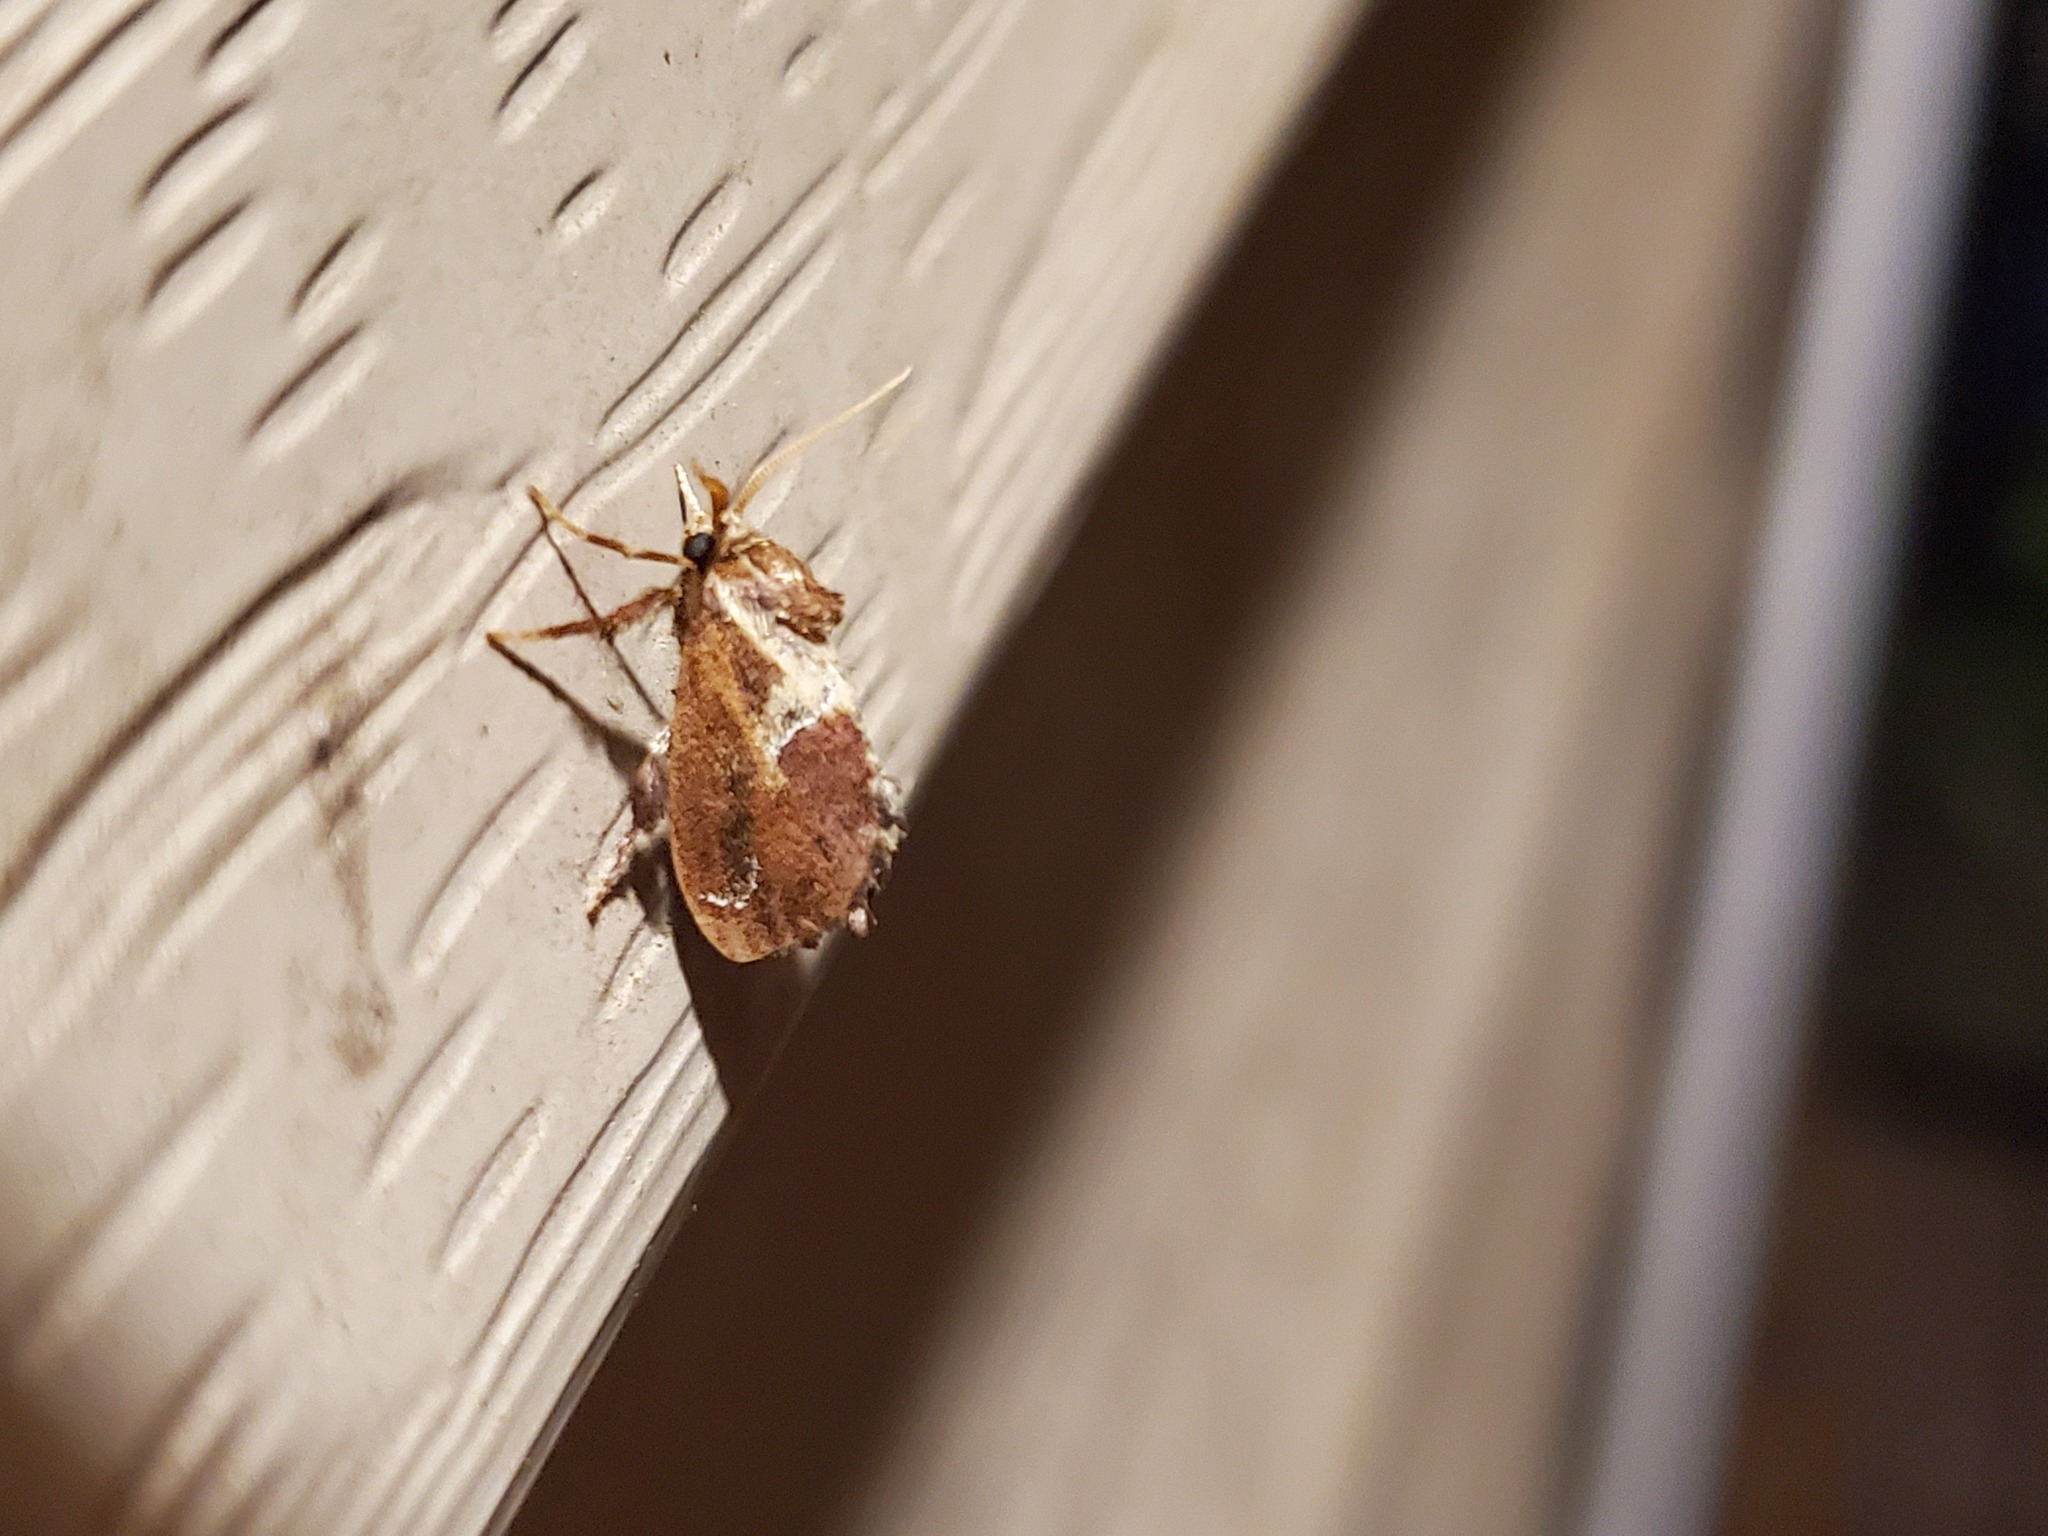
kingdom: Animalia
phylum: Arthropoda
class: Insecta
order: Lepidoptera
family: Limacodidae
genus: Adoneta
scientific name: Adoneta spinuloides
